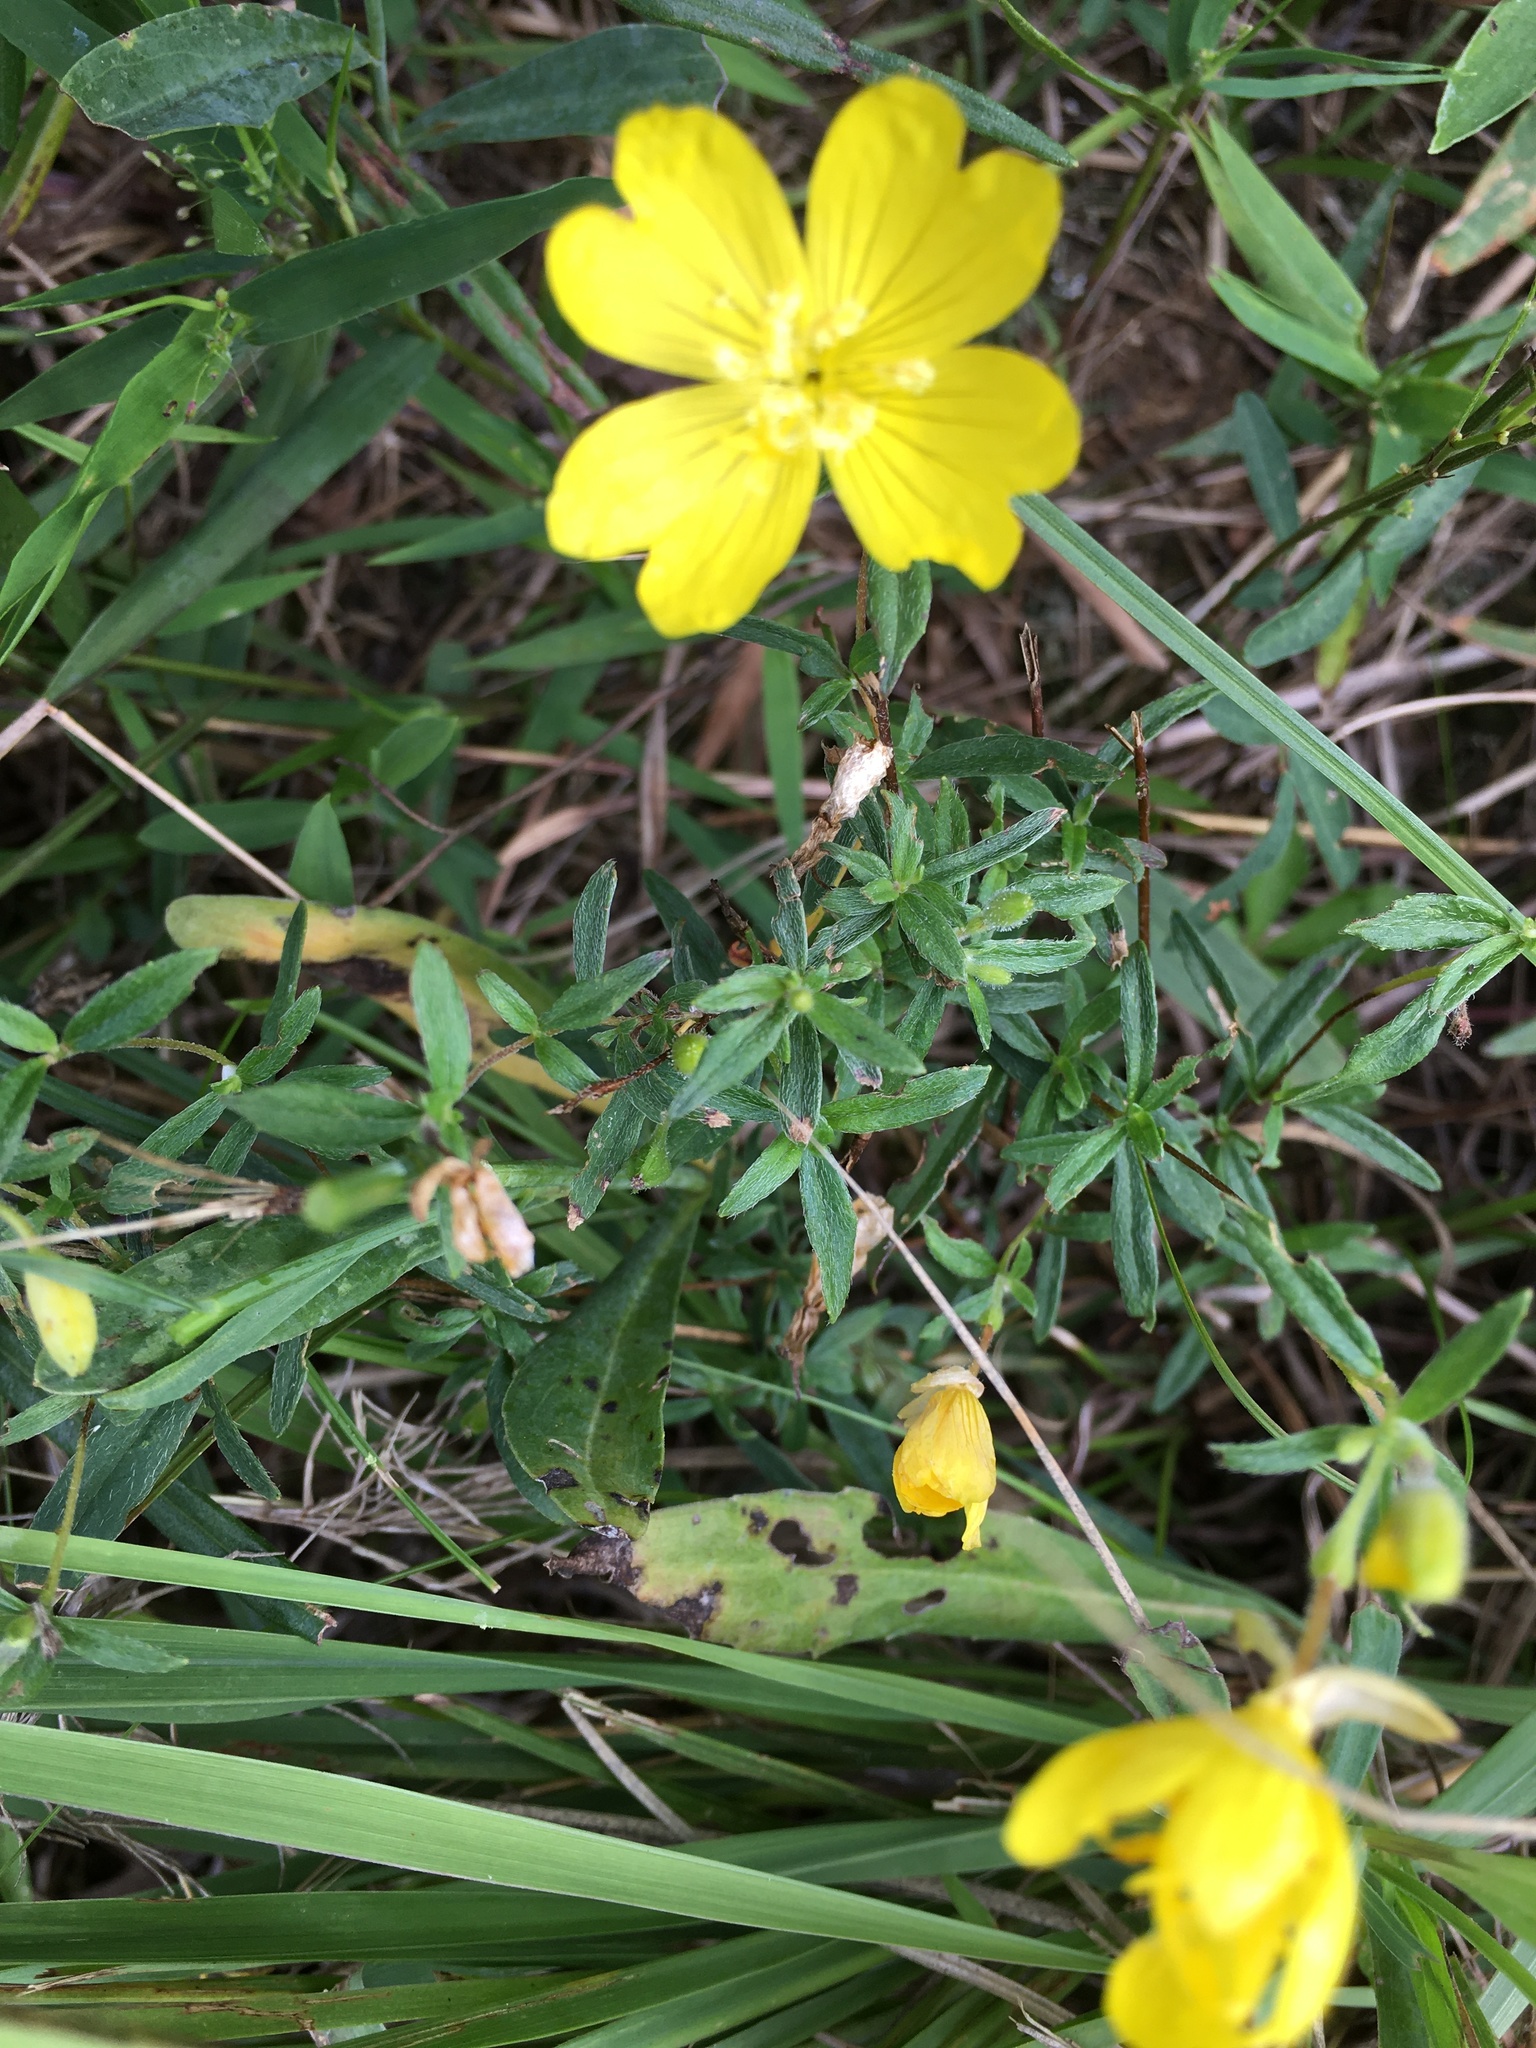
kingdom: Plantae
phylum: Tracheophyta
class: Magnoliopsida
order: Myrtales
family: Onagraceae
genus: Oenothera
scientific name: Oenothera fruticosa
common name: Southern sundrops
